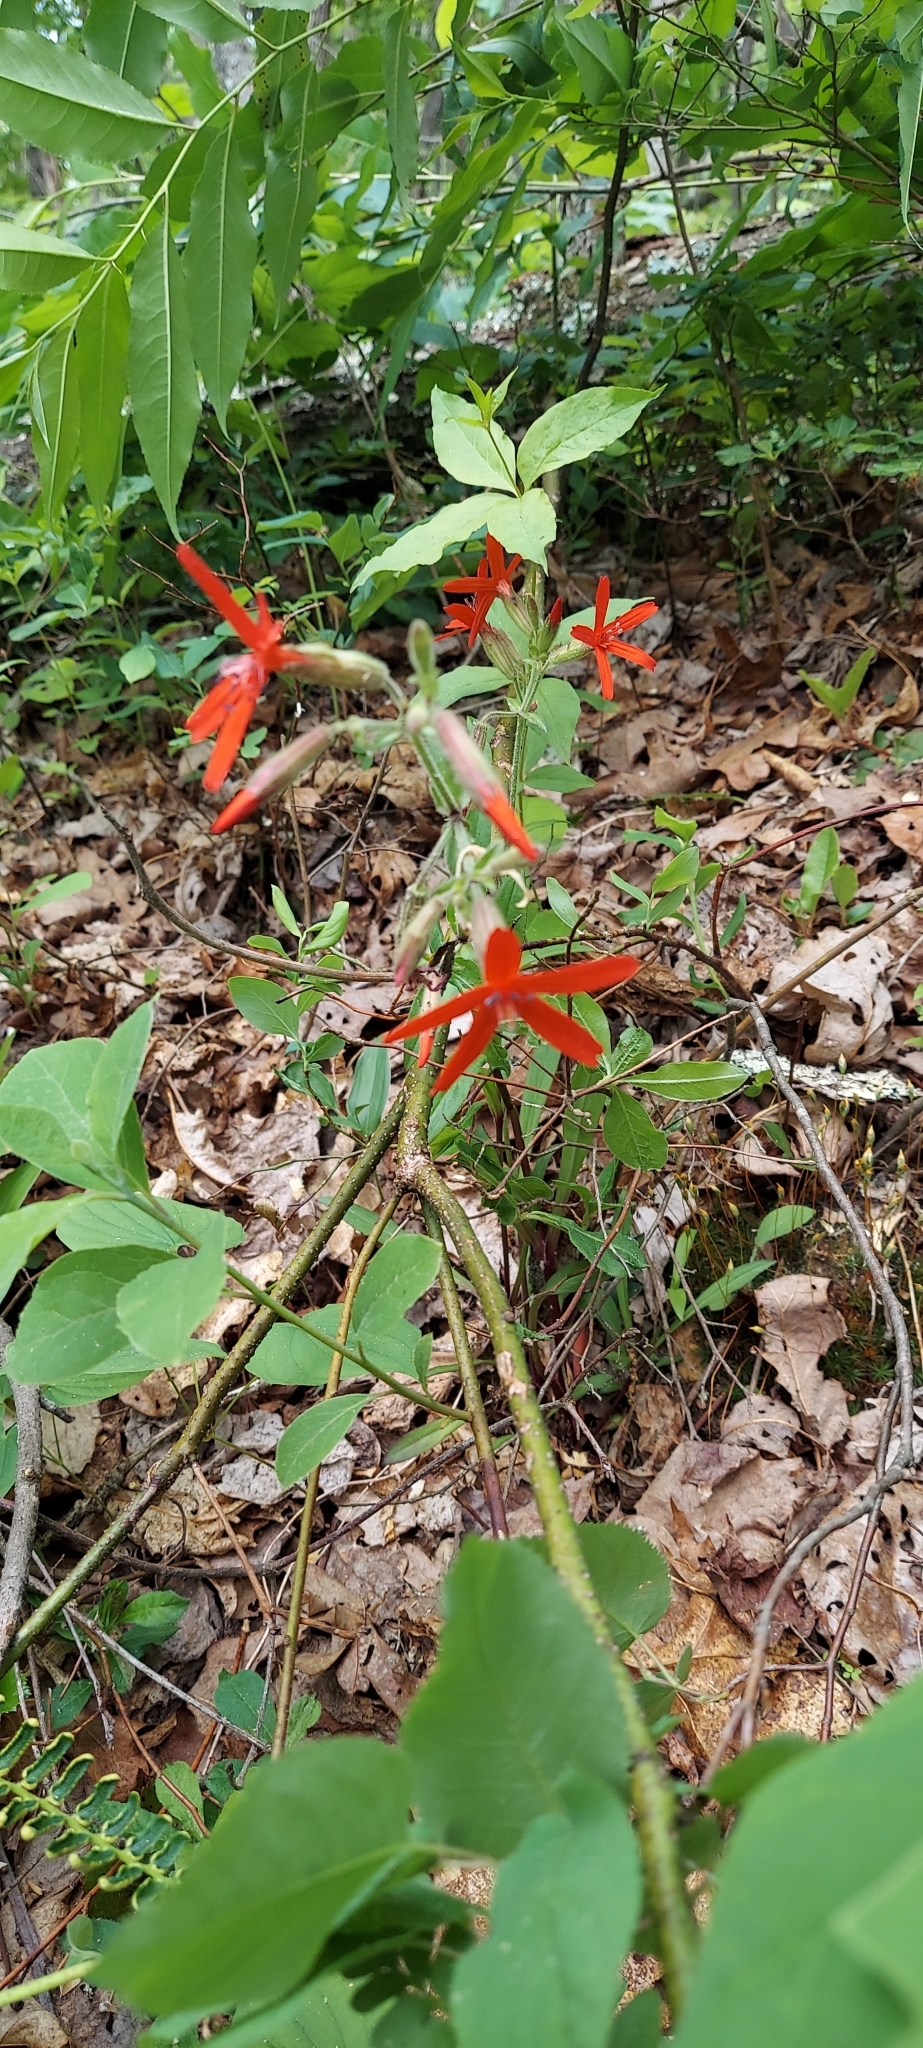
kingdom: Plantae
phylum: Tracheophyta
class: Magnoliopsida
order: Caryophyllales
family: Caryophyllaceae
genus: Silene
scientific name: Silene virginica
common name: Fire-pink
